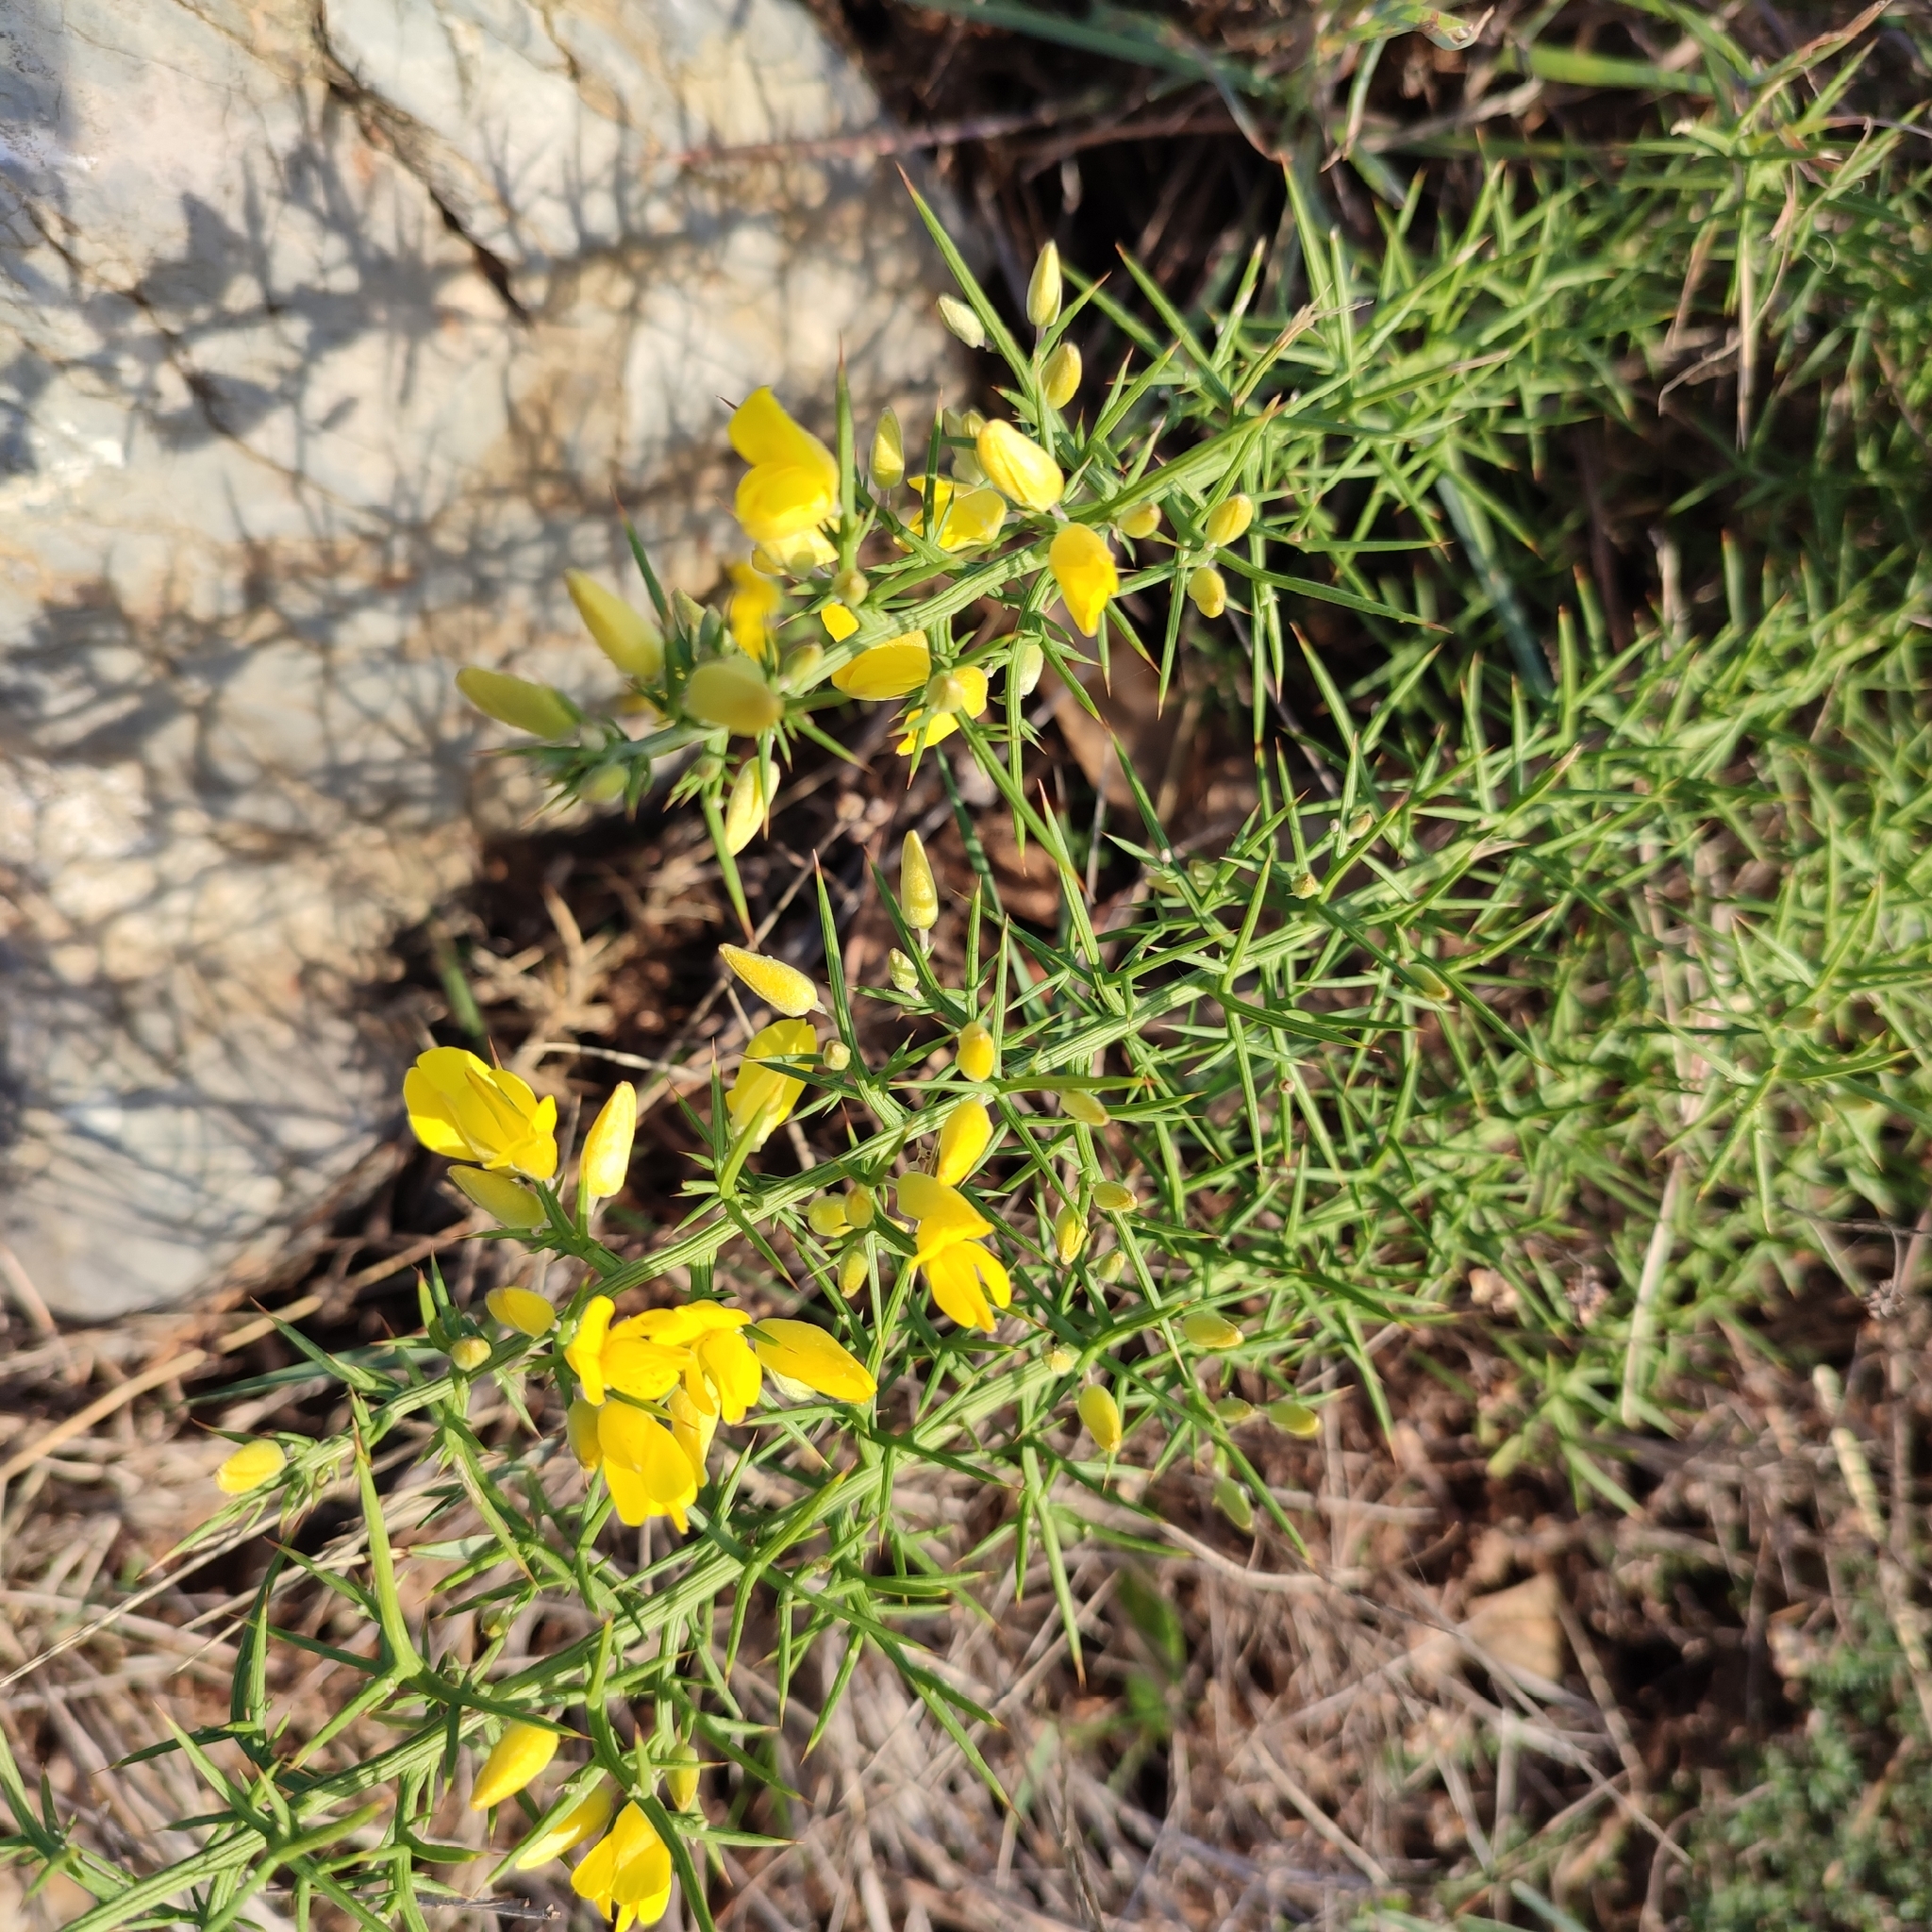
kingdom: Plantae
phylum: Tracheophyta
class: Magnoliopsida
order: Fabales
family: Fabaceae
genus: Ulex
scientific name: Ulex parviflorus
